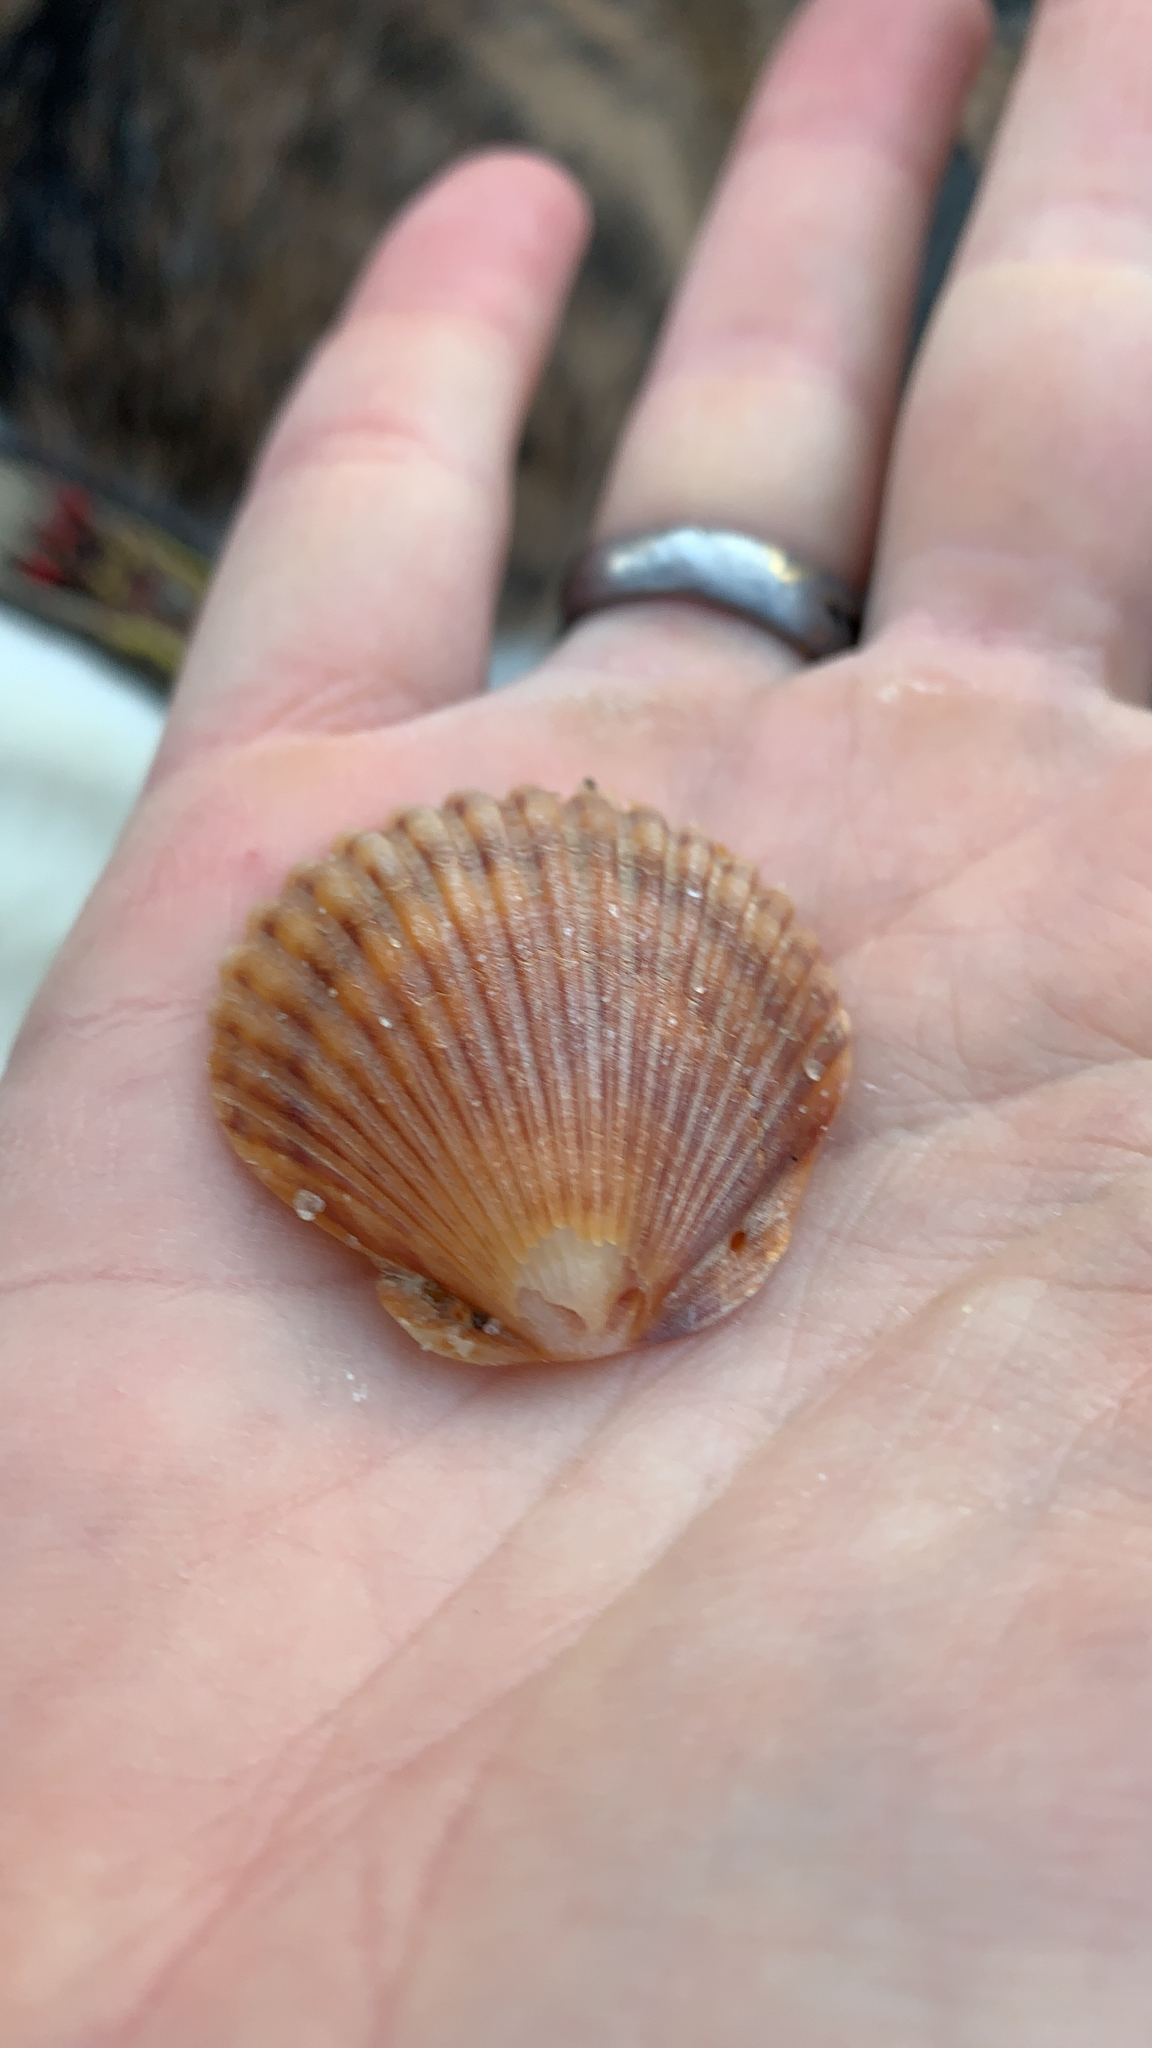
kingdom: Animalia
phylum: Mollusca
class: Bivalvia
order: Pectinida
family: Pectinidae
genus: Argopecten
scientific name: Argopecten irradians
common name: Atlantic bay scallop
